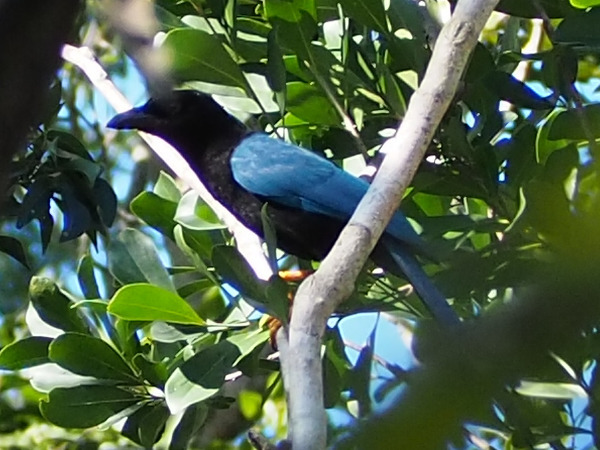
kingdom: Animalia
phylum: Chordata
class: Aves
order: Passeriformes
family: Corvidae
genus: Cyanocorax
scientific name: Cyanocorax yucatanicus
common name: Yucatan jay
